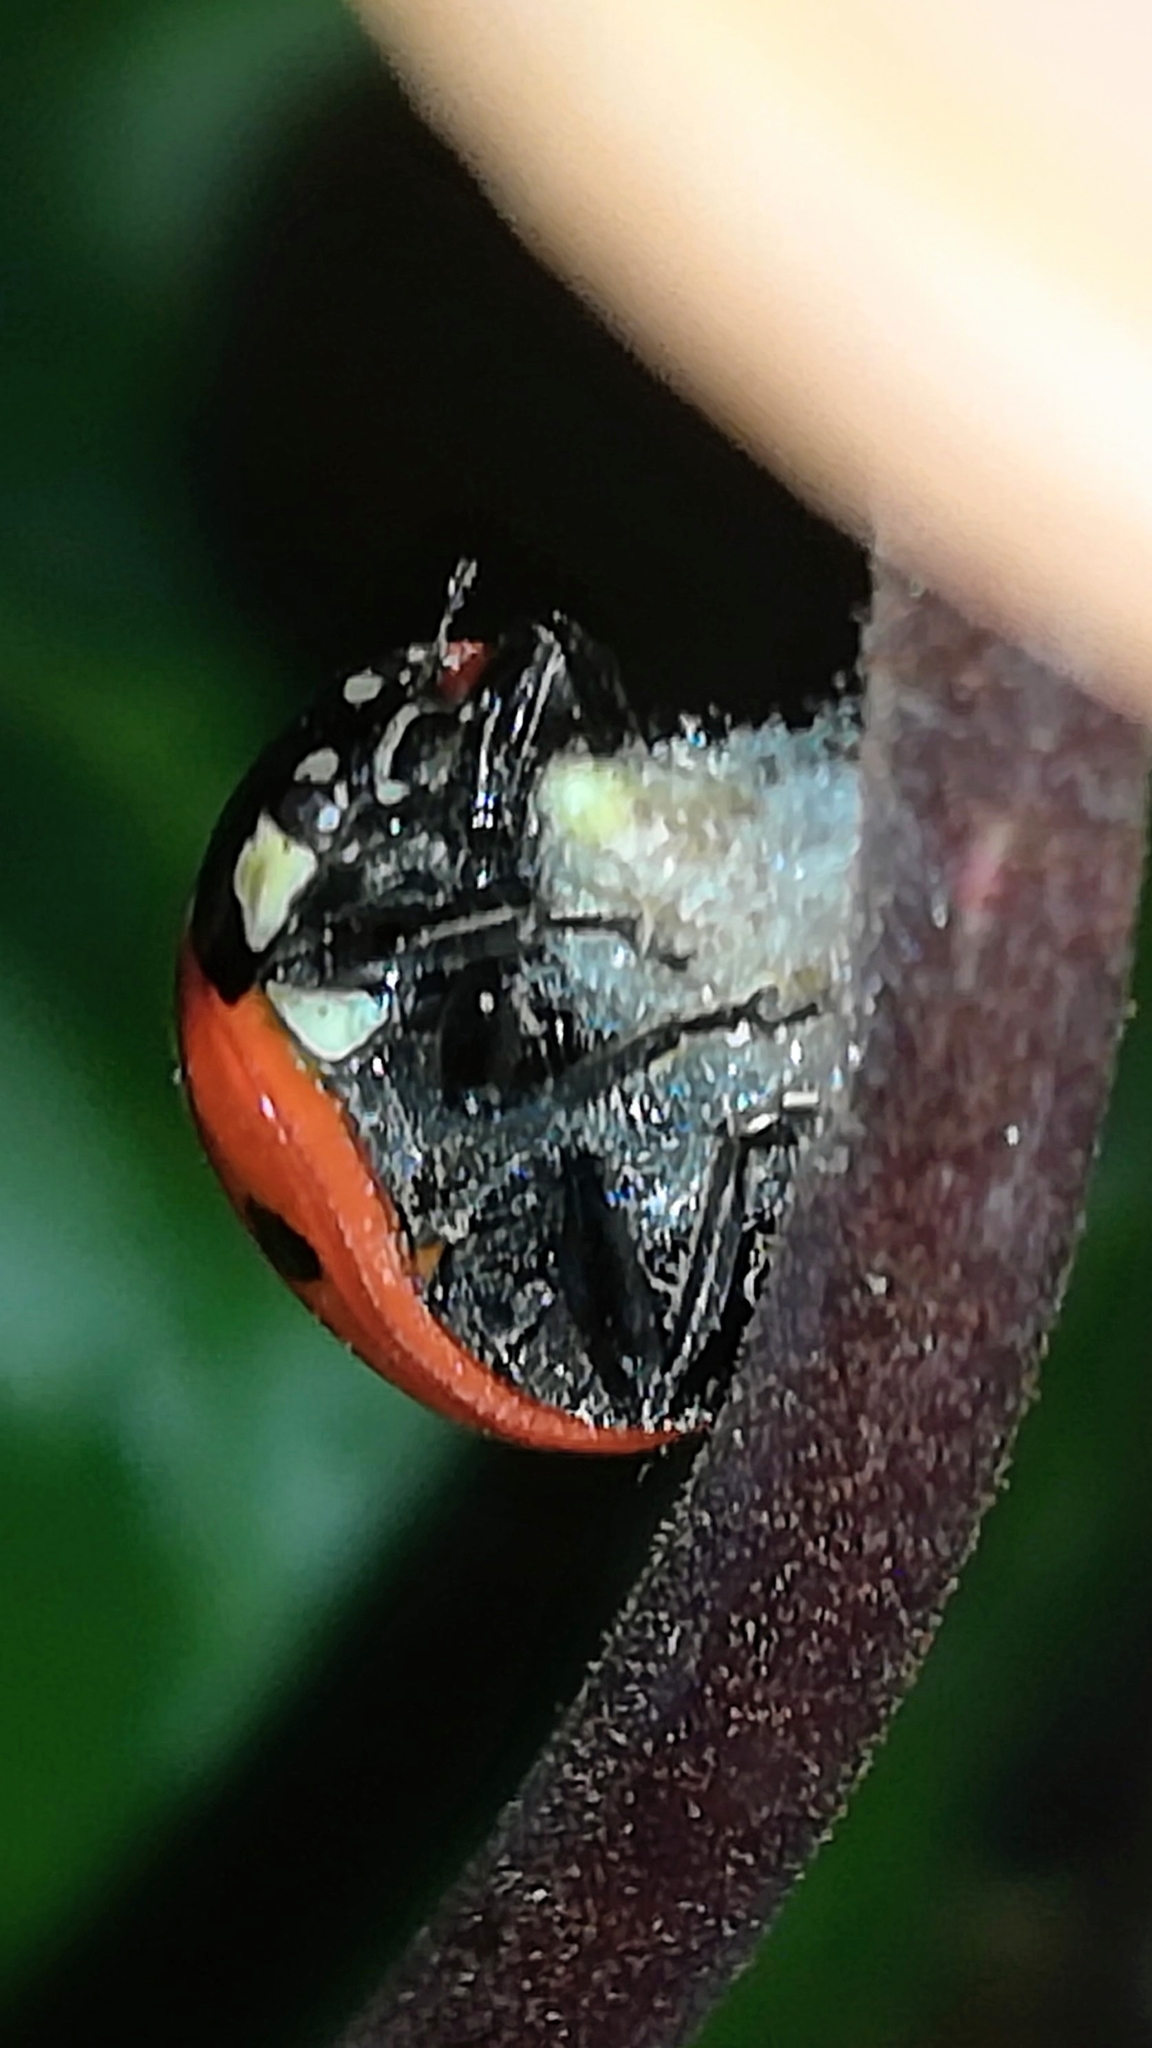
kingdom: Animalia
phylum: Arthropoda
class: Insecta
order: Coleoptera
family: Coccinellidae
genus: Coccinella
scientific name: Coccinella septempunctata
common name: Sevenspotted lady beetle
